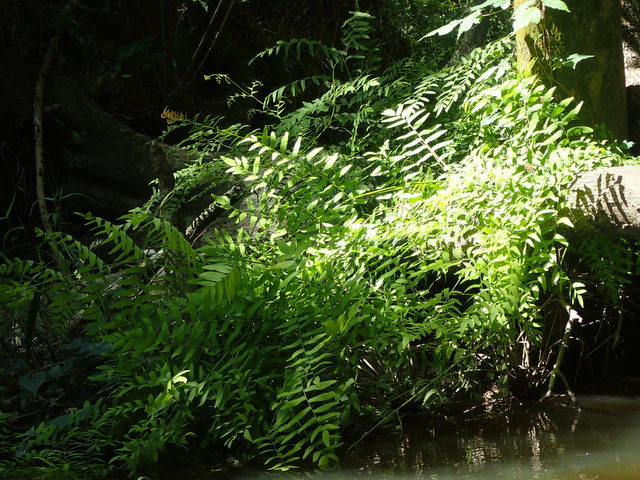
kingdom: Plantae
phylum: Tracheophyta
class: Polypodiopsida
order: Osmundales
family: Osmundaceae
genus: Osmunda
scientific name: Osmunda spectabilis
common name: American royal fern
